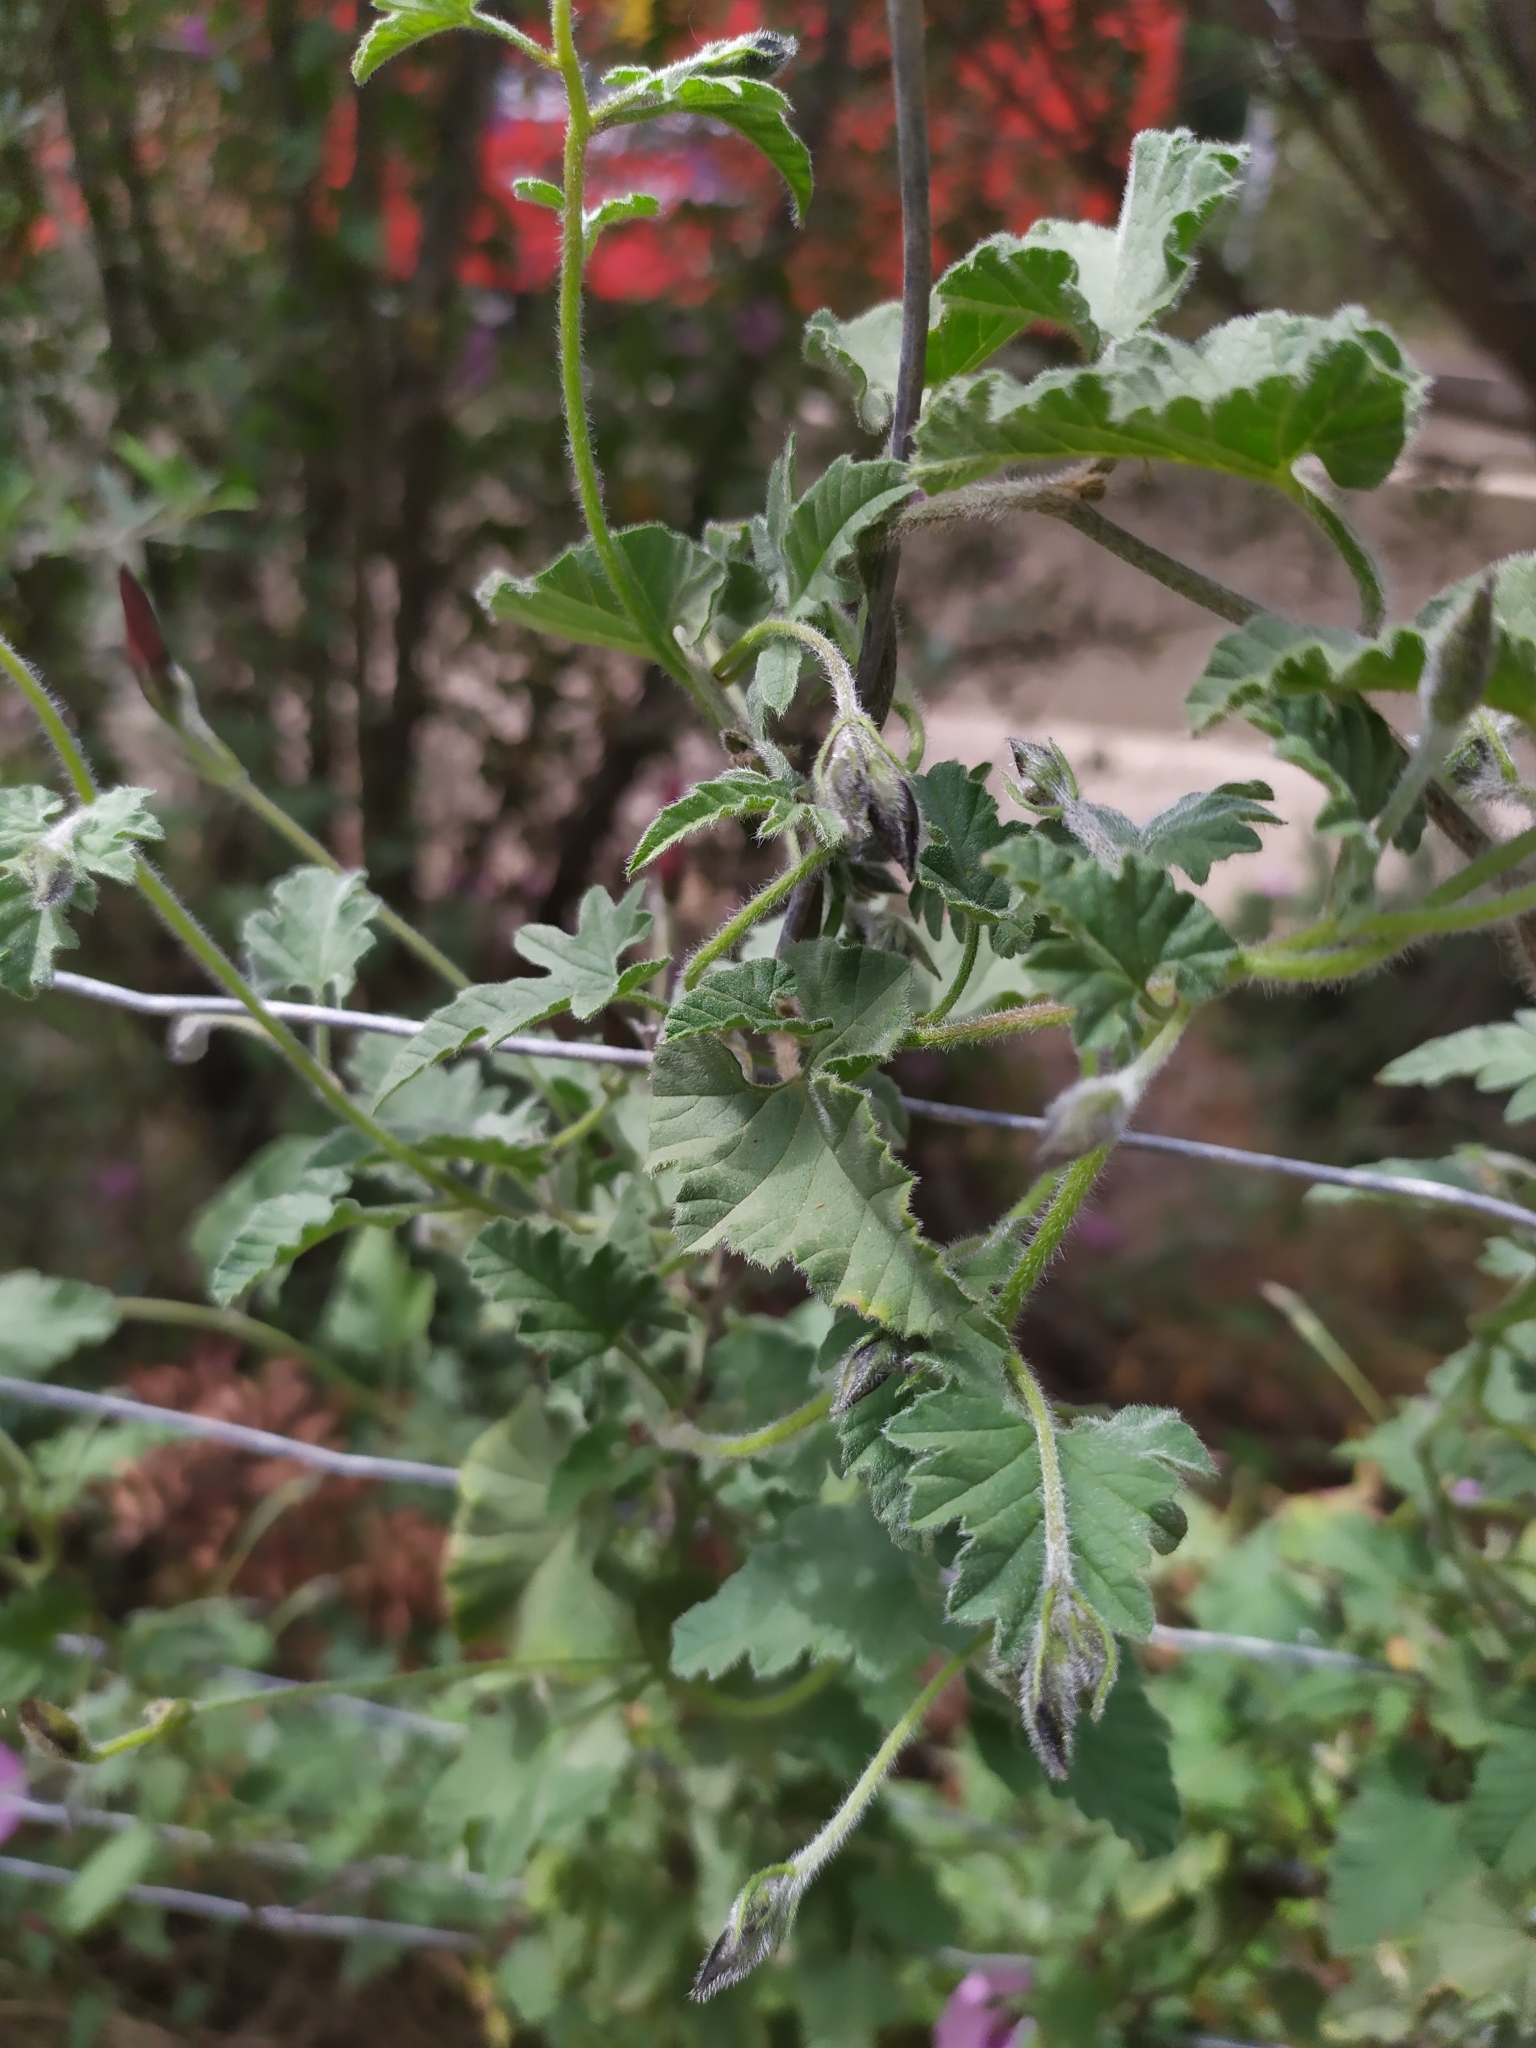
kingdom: Plantae
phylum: Tracheophyta
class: Magnoliopsida
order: Solanales
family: Convolvulaceae
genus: Convolvulus
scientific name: Convolvulus althaeoides
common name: Mallow bindweed
